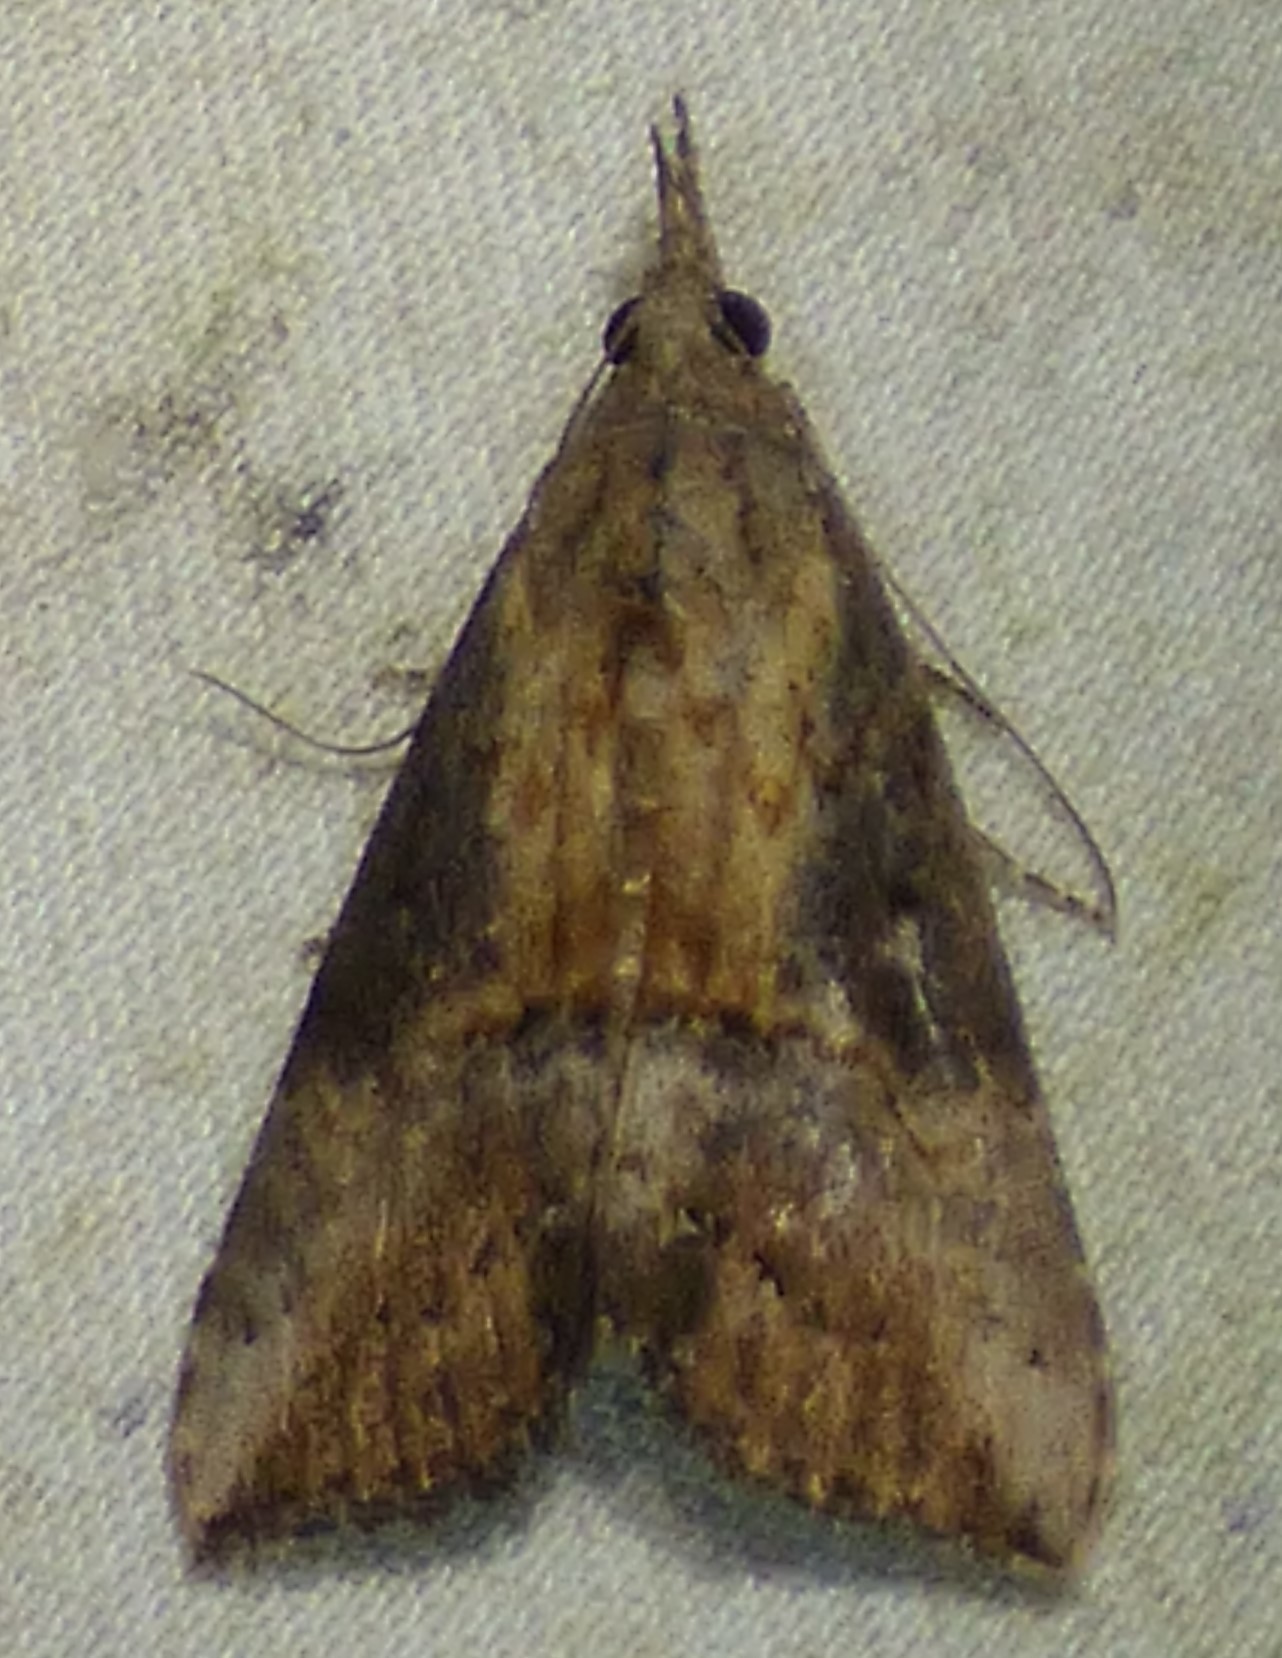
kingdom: Animalia
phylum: Arthropoda
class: Insecta
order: Lepidoptera
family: Erebidae
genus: Hypena
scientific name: Hypena scabra
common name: Green cloverworm
